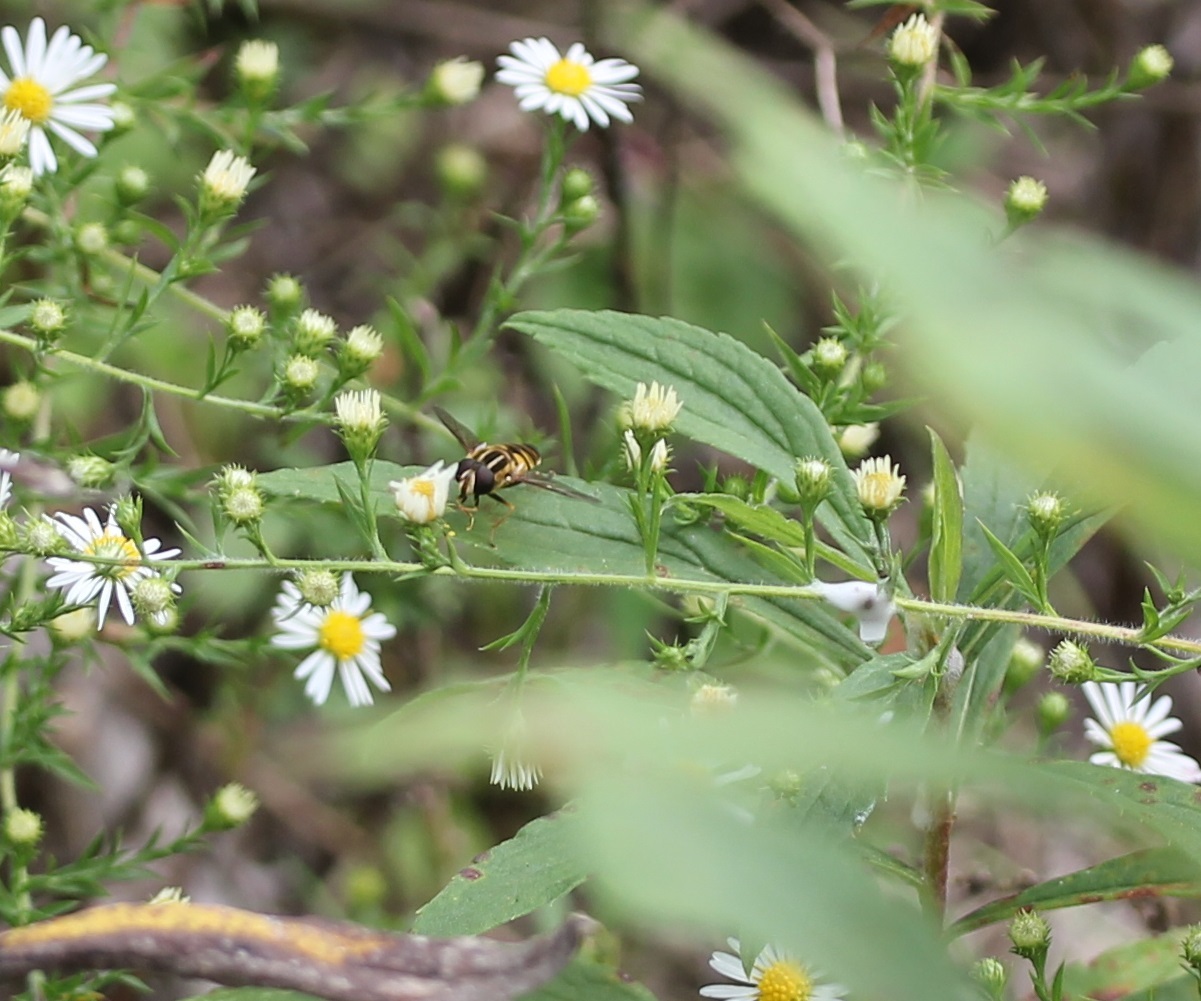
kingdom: Animalia
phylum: Arthropoda
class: Insecta
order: Diptera
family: Syrphidae
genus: Helophilus
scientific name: Helophilus fasciatus
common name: Narrow-headed marsh fly
